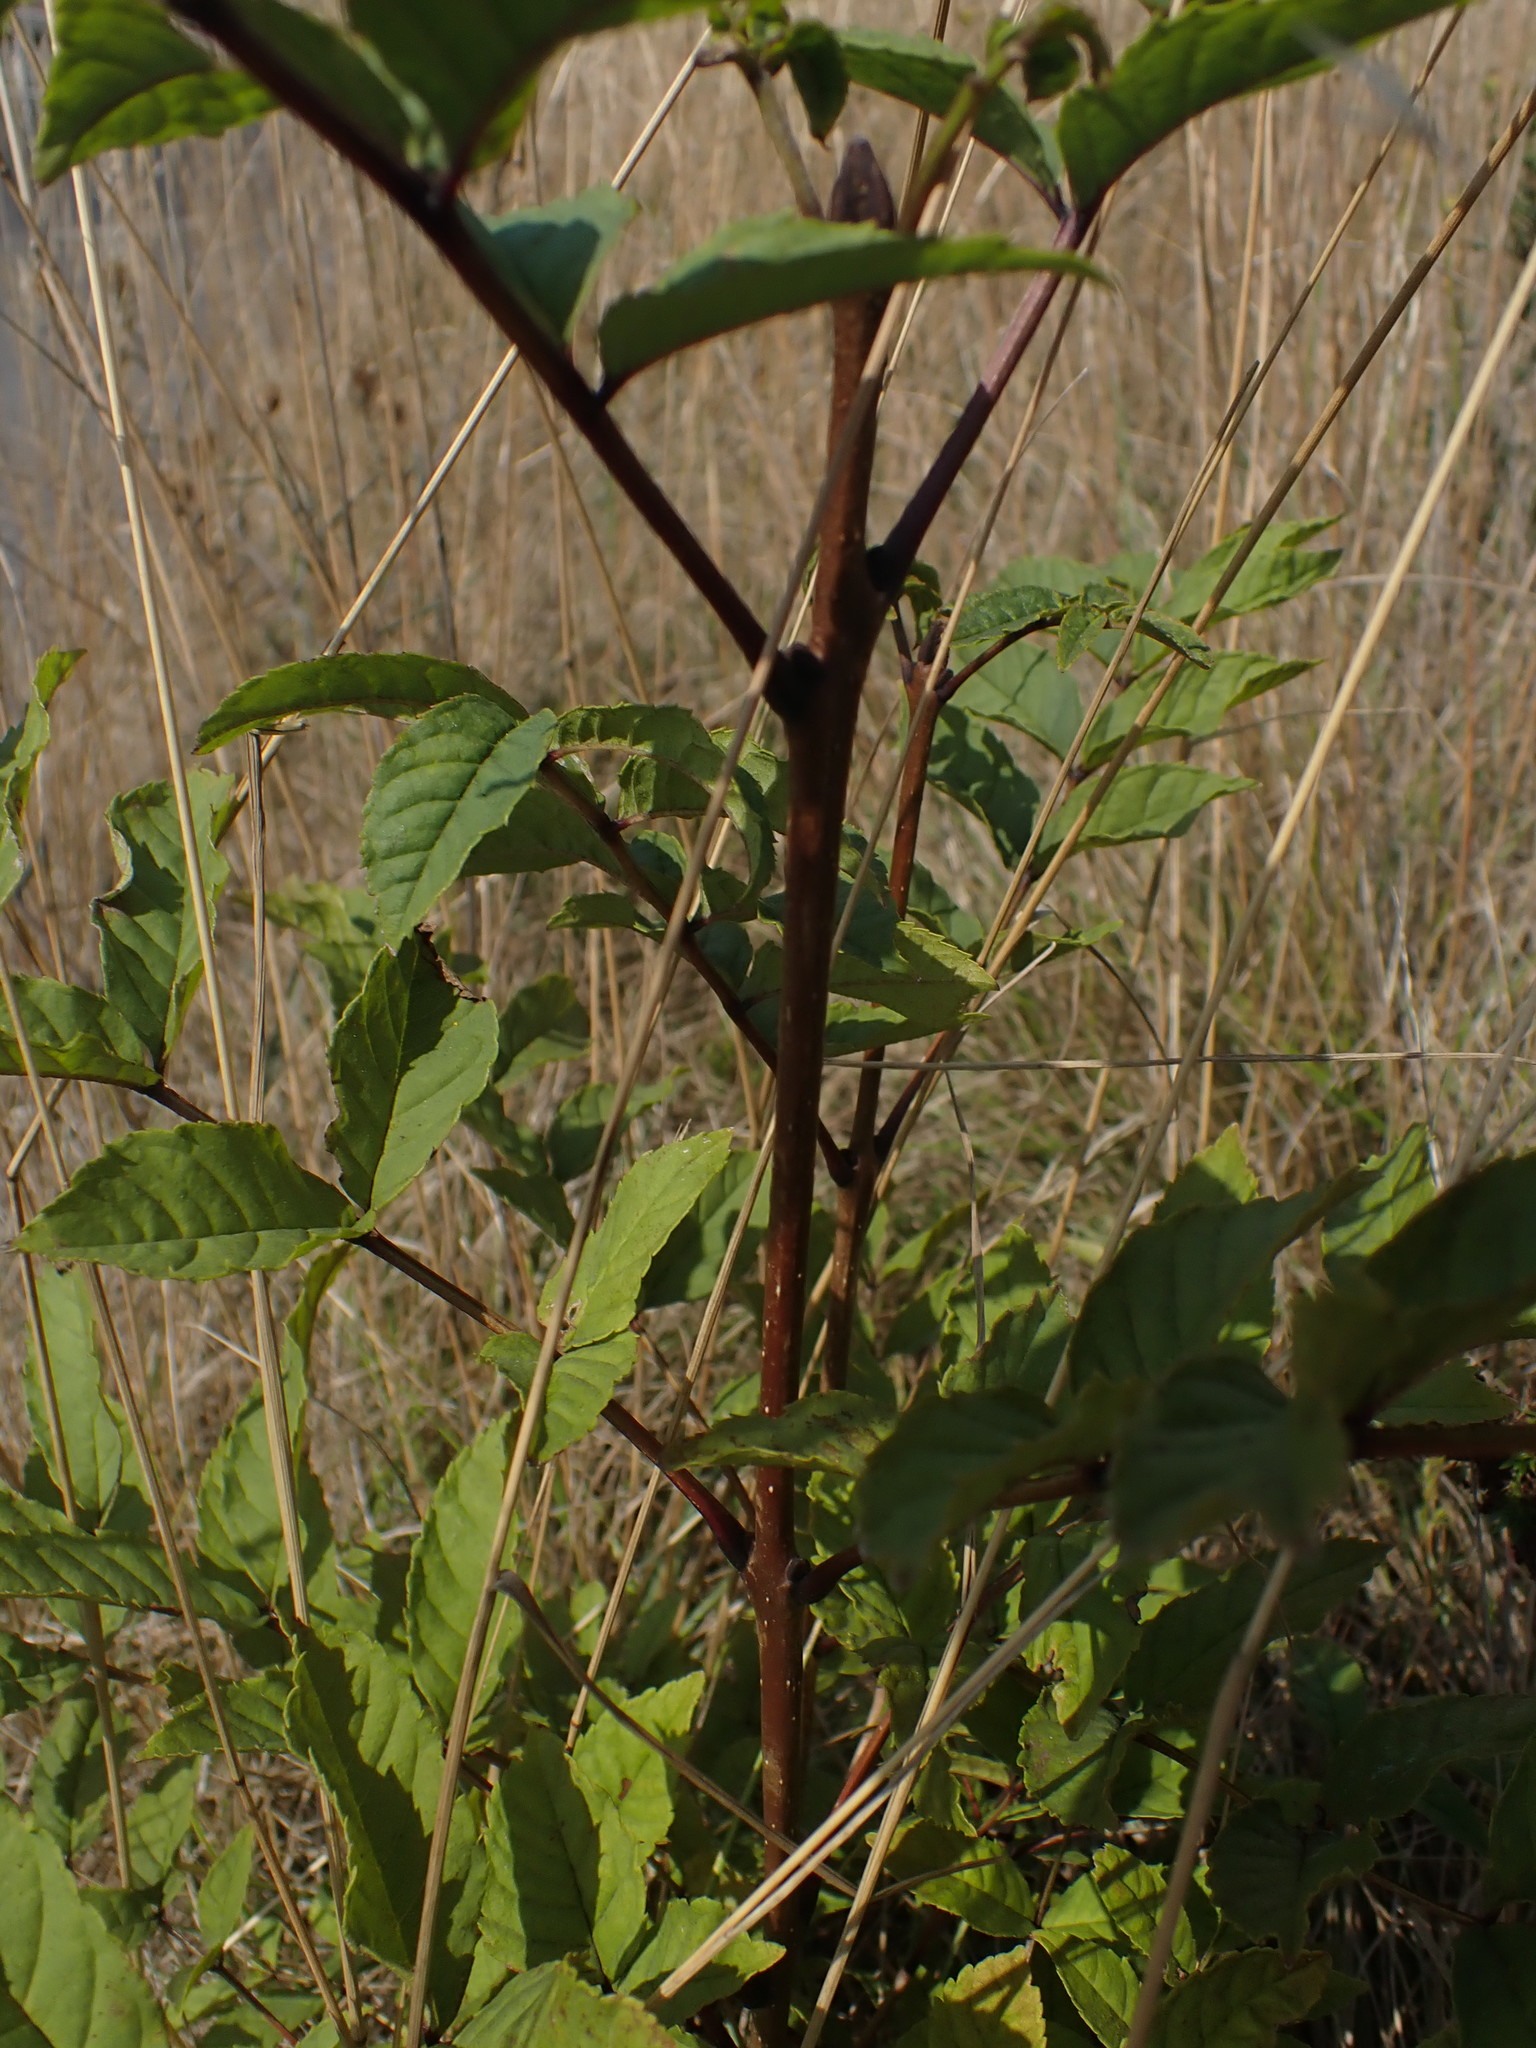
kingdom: Plantae
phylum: Tracheophyta
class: Magnoliopsida
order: Lamiales
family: Oleaceae
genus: Fraxinus
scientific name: Fraxinus excelsior
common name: European ash
